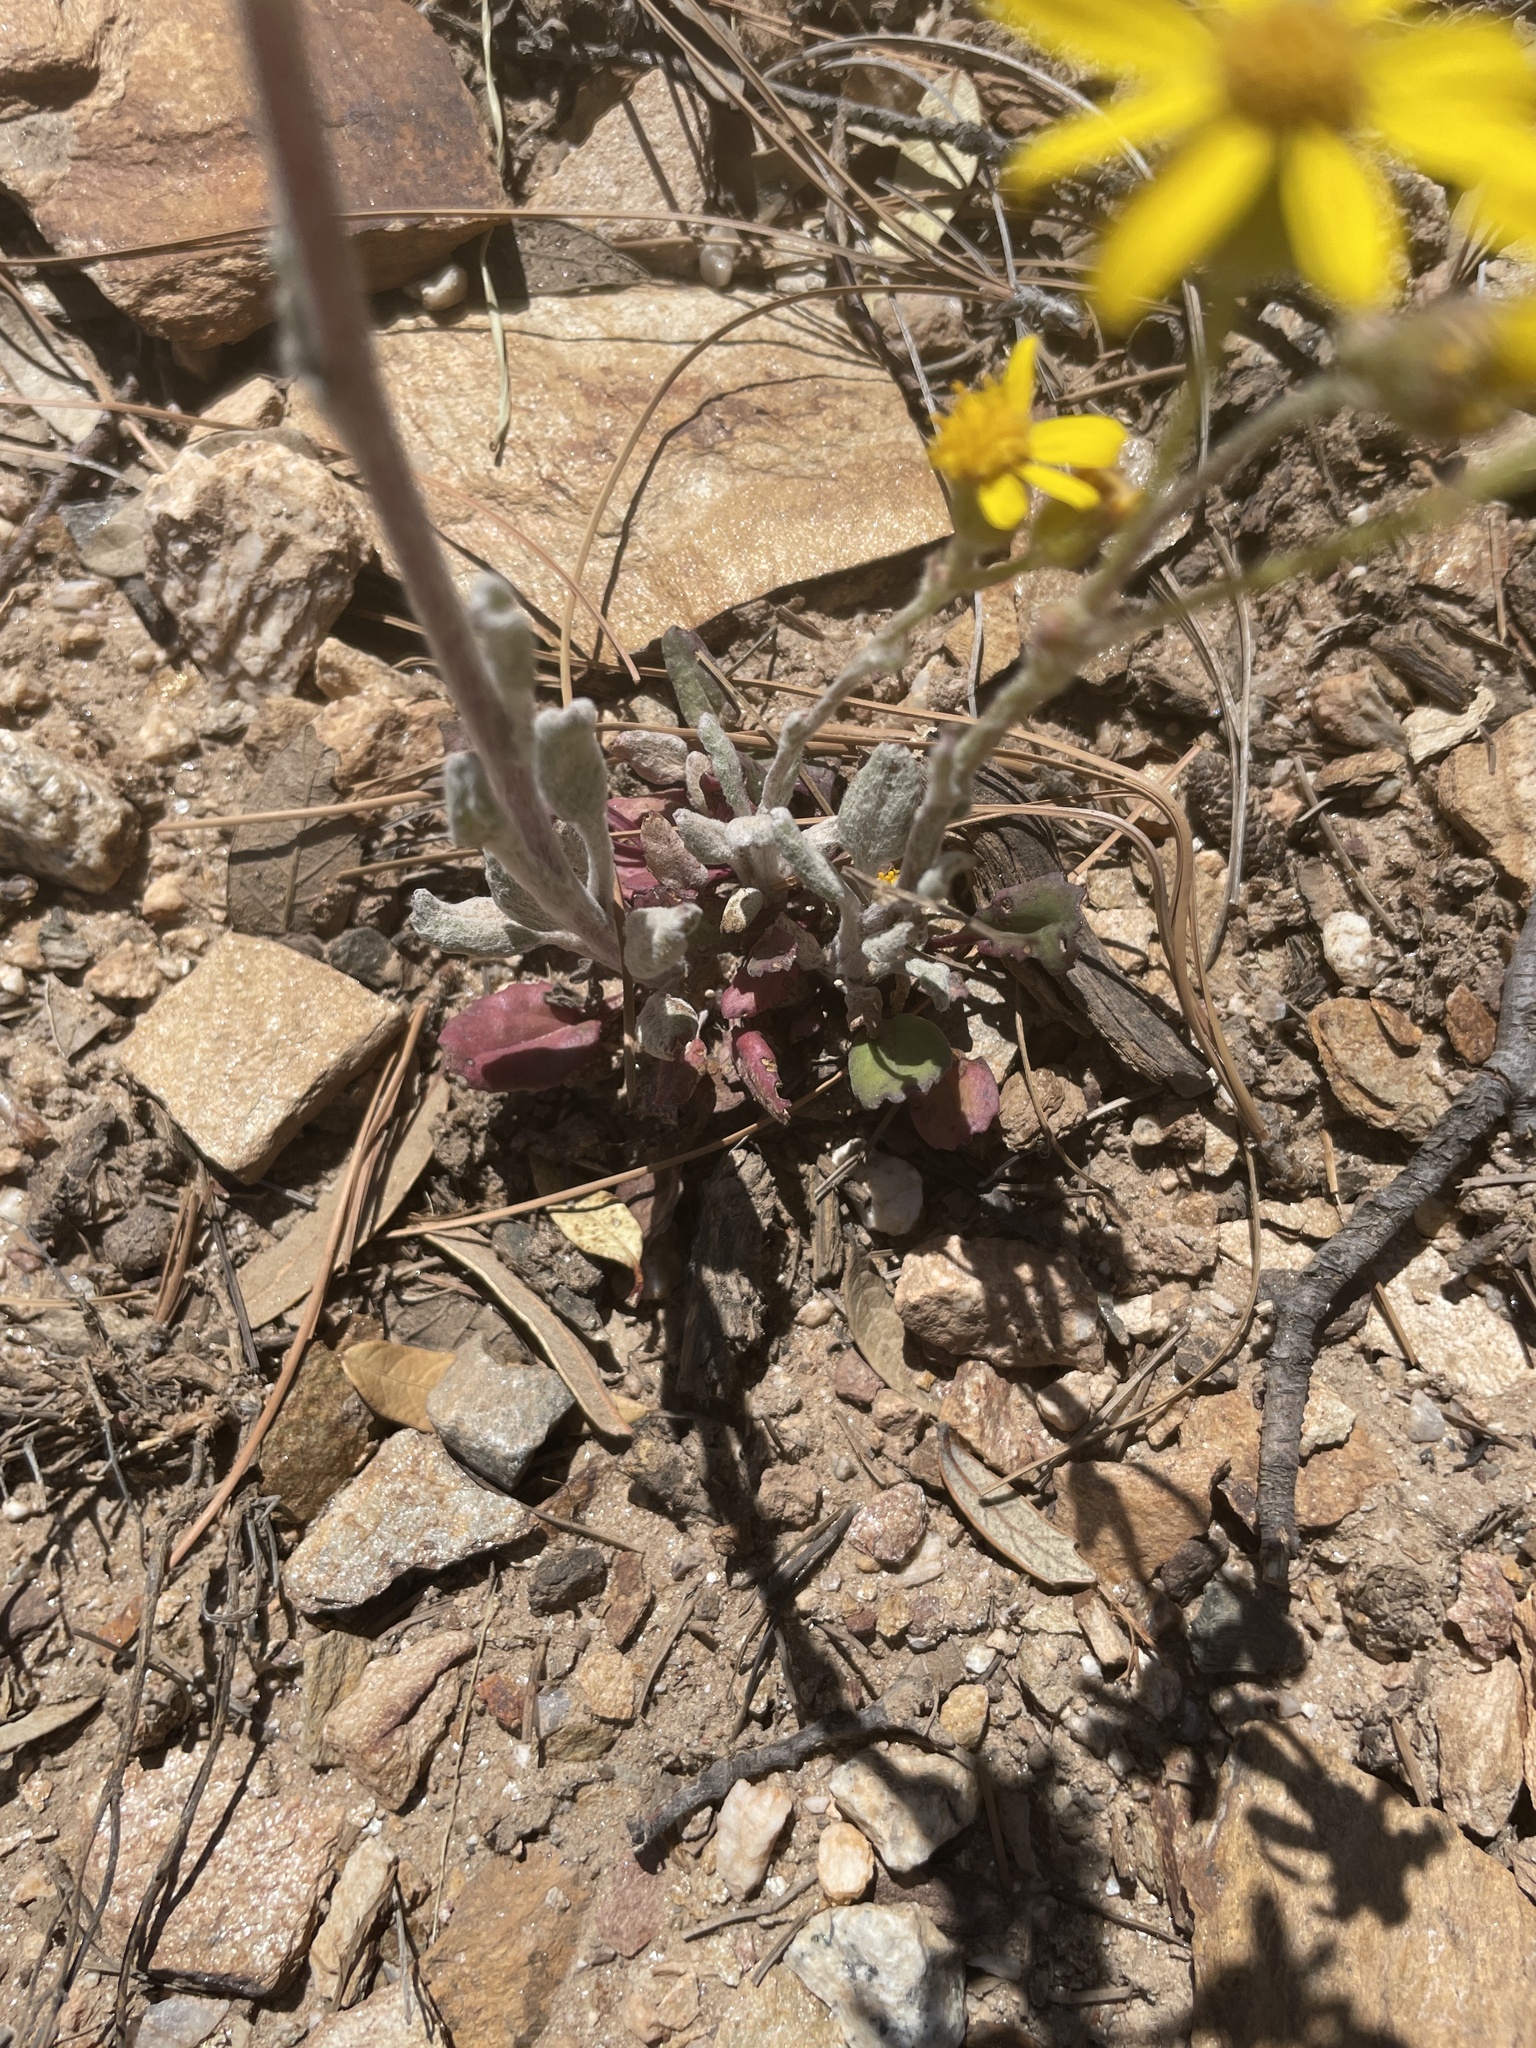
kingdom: Plantae
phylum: Tracheophyta
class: Magnoliopsida
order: Asterales
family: Asteraceae
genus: Packera
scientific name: Packera neomexicana
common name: New mexico butterweed
